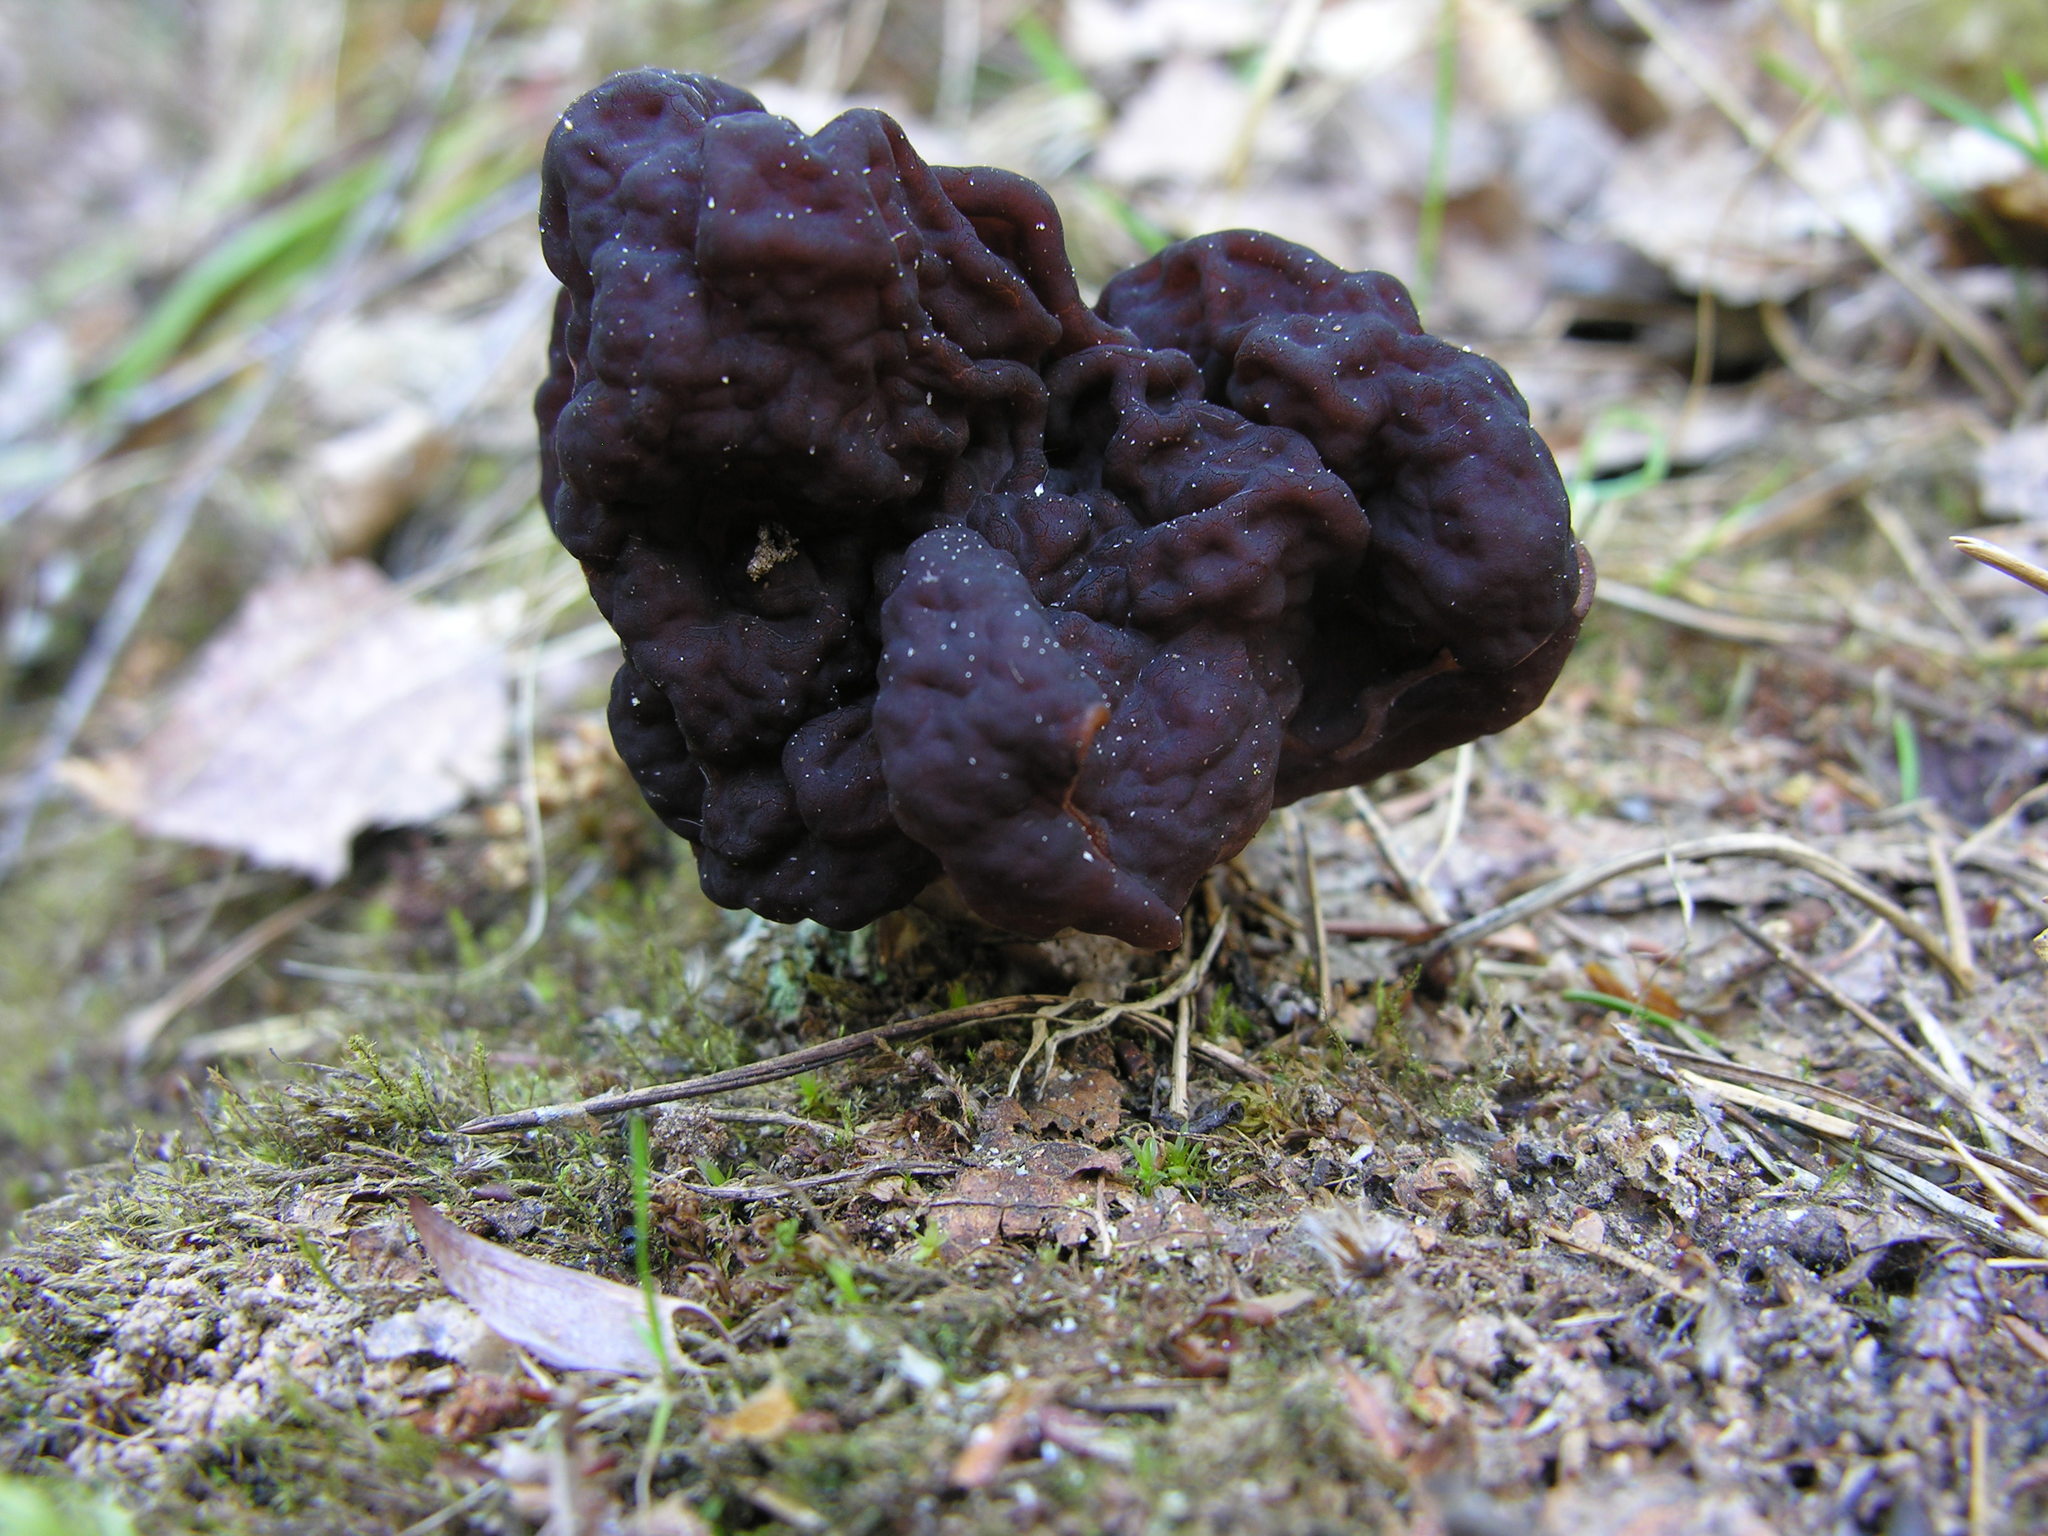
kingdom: Fungi
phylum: Ascomycota
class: Pezizomycetes
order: Pezizales
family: Discinaceae
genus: Gyromitra
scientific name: Gyromitra esculenta
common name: False morel
